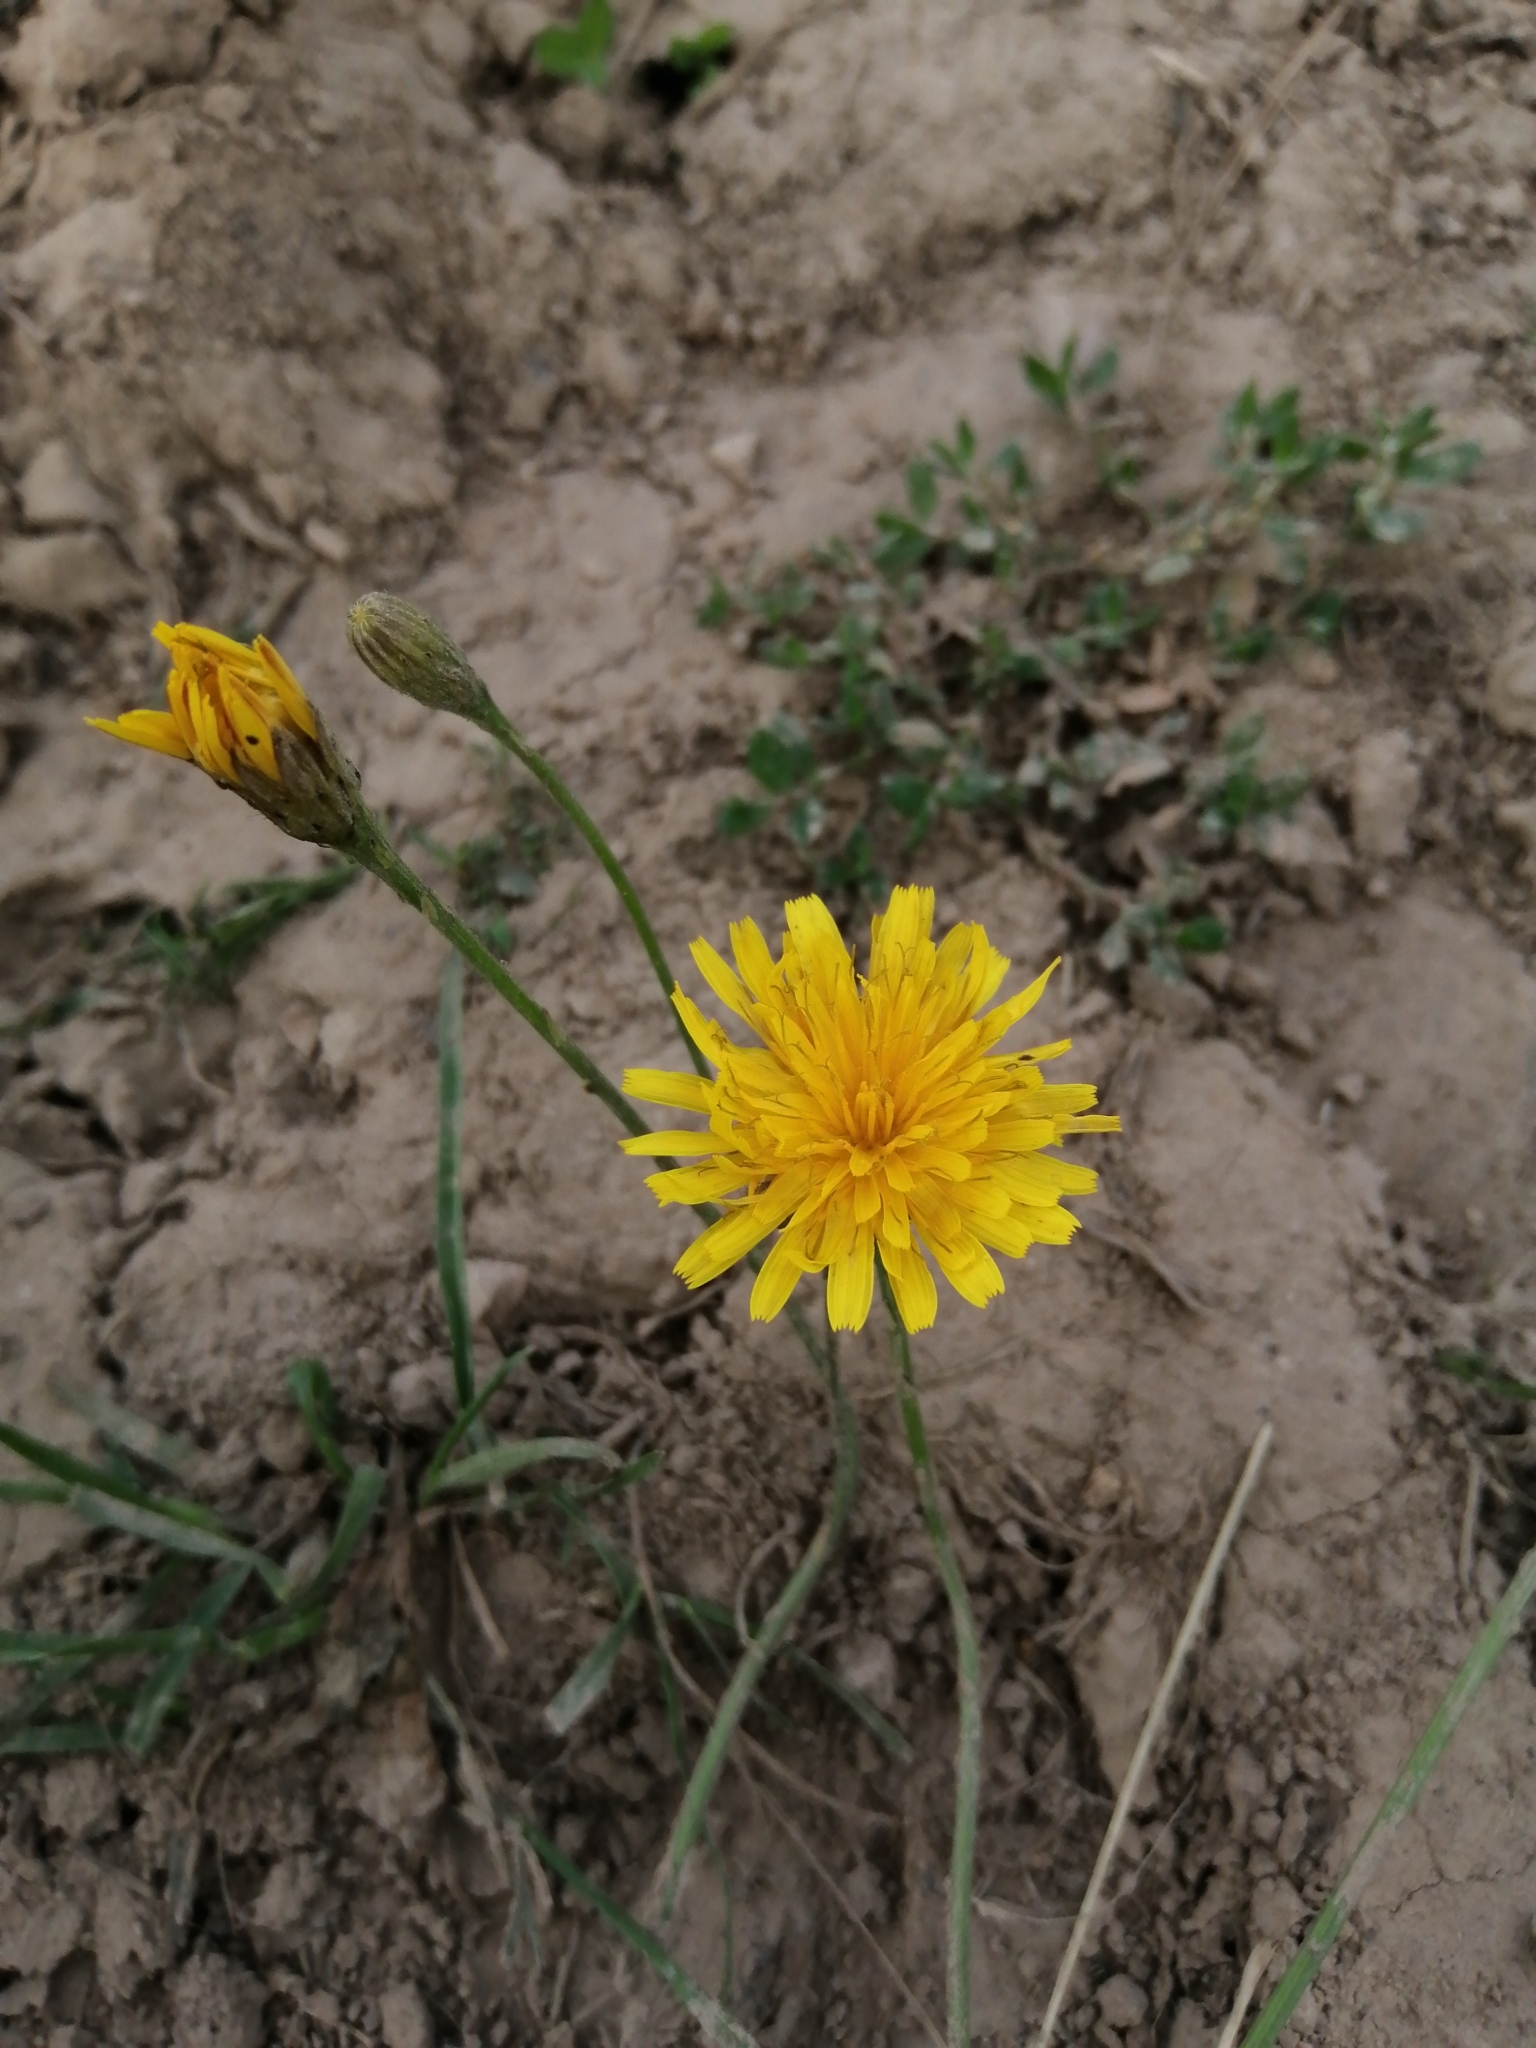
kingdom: Plantae
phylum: Tracheophyta
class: Magnoliopsida
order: Asterales
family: Asteraceae
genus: Scorzoneroides
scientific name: Scorzoneroides autumnalis
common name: Autumn hawkbit
